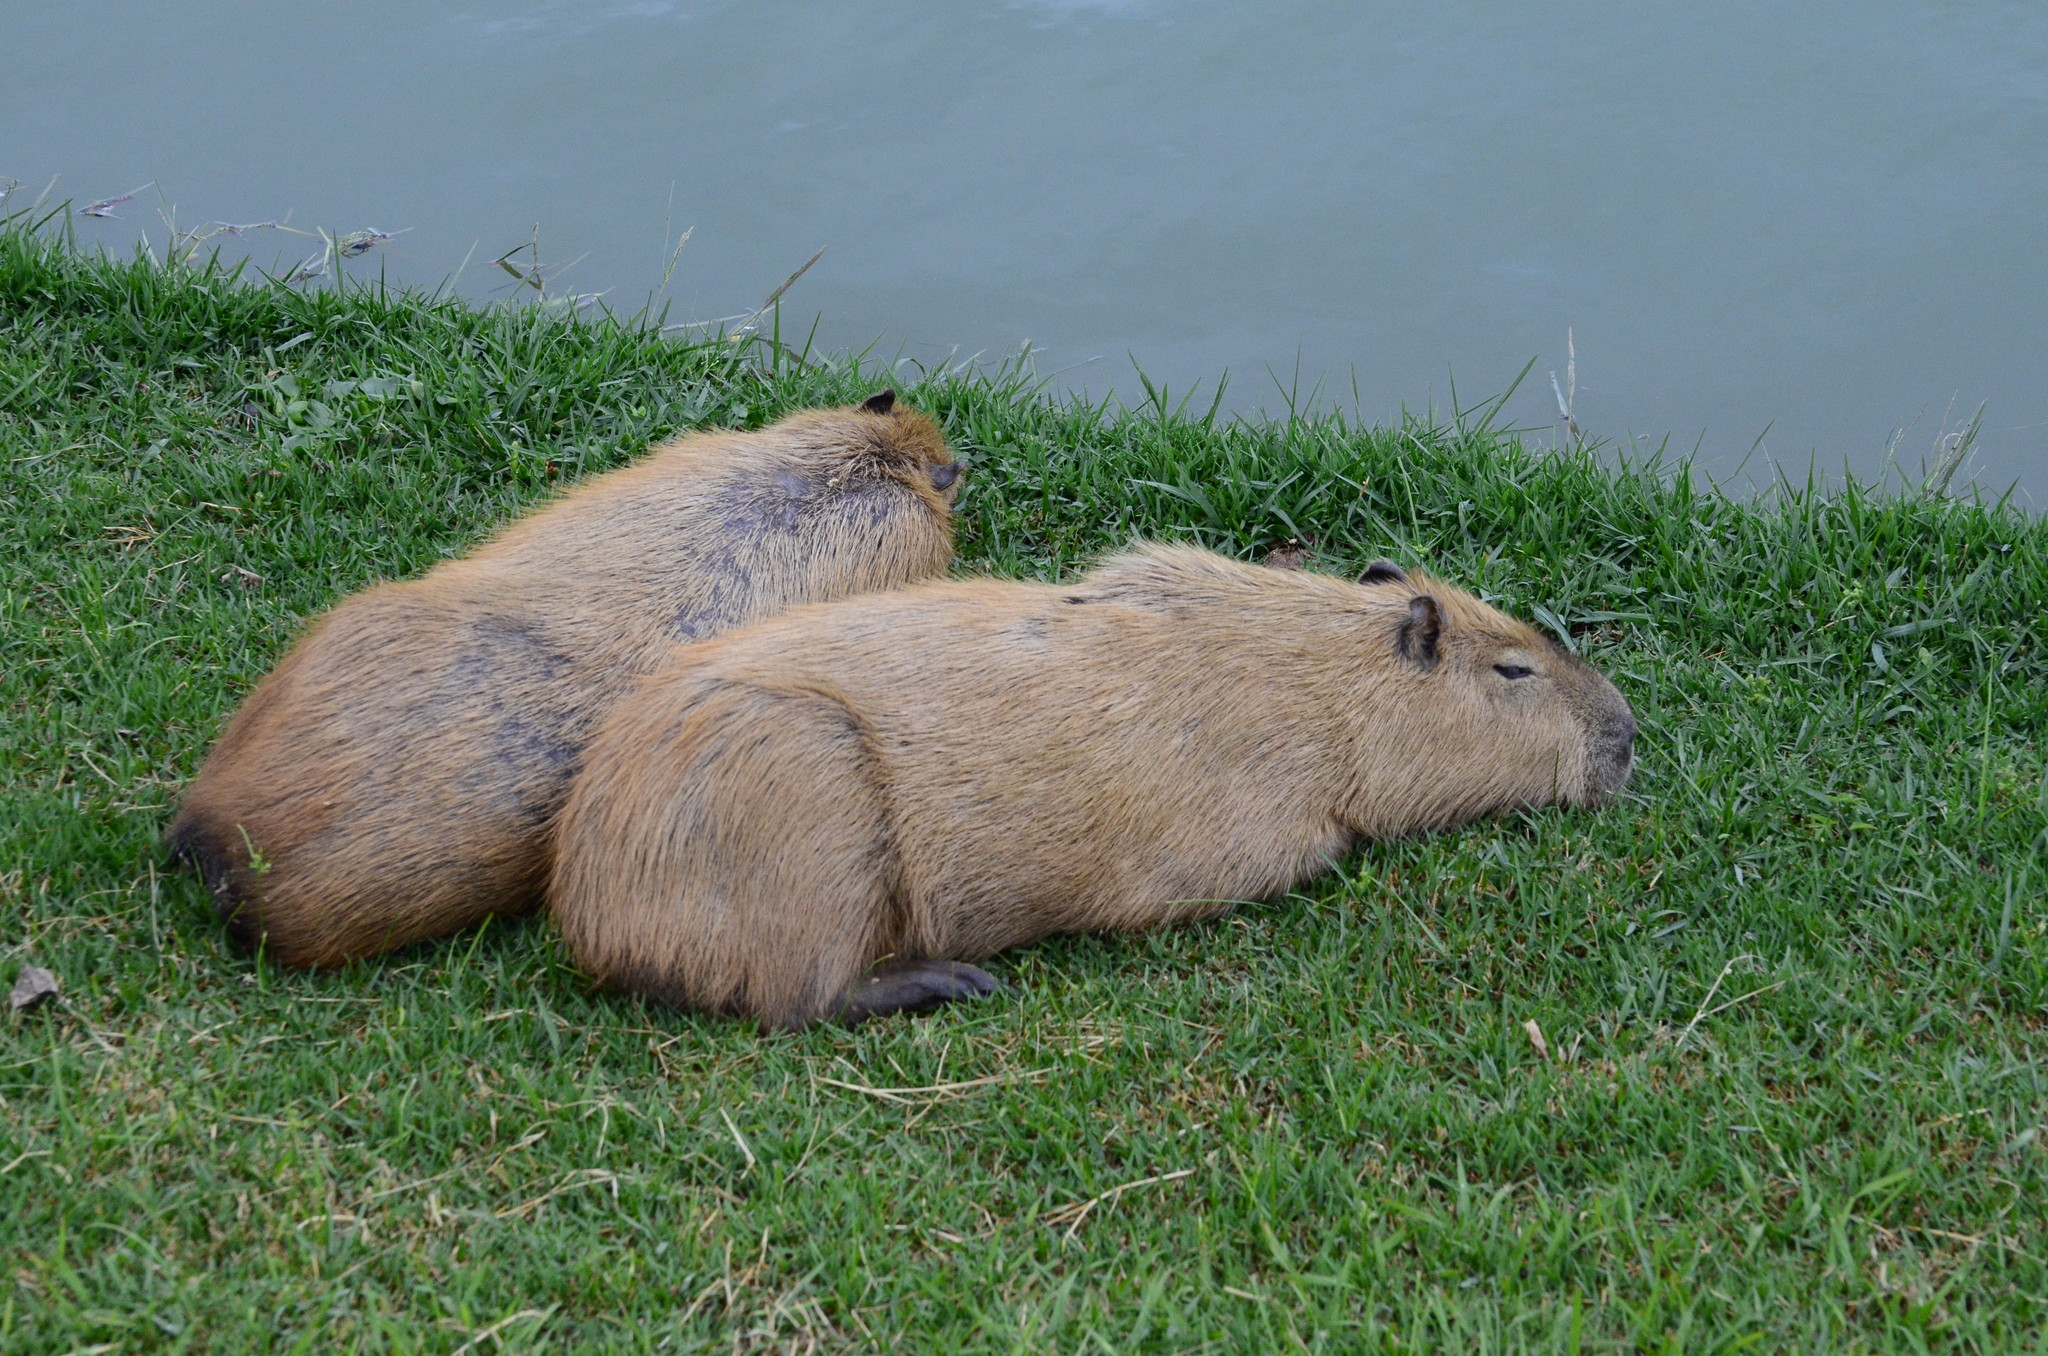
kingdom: Animalia
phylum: Chordata
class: Mammalia
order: Rodentia
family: Caviidae
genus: Hydrochoerus
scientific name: Hydrochoerus hydrochaeris
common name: Capybara
